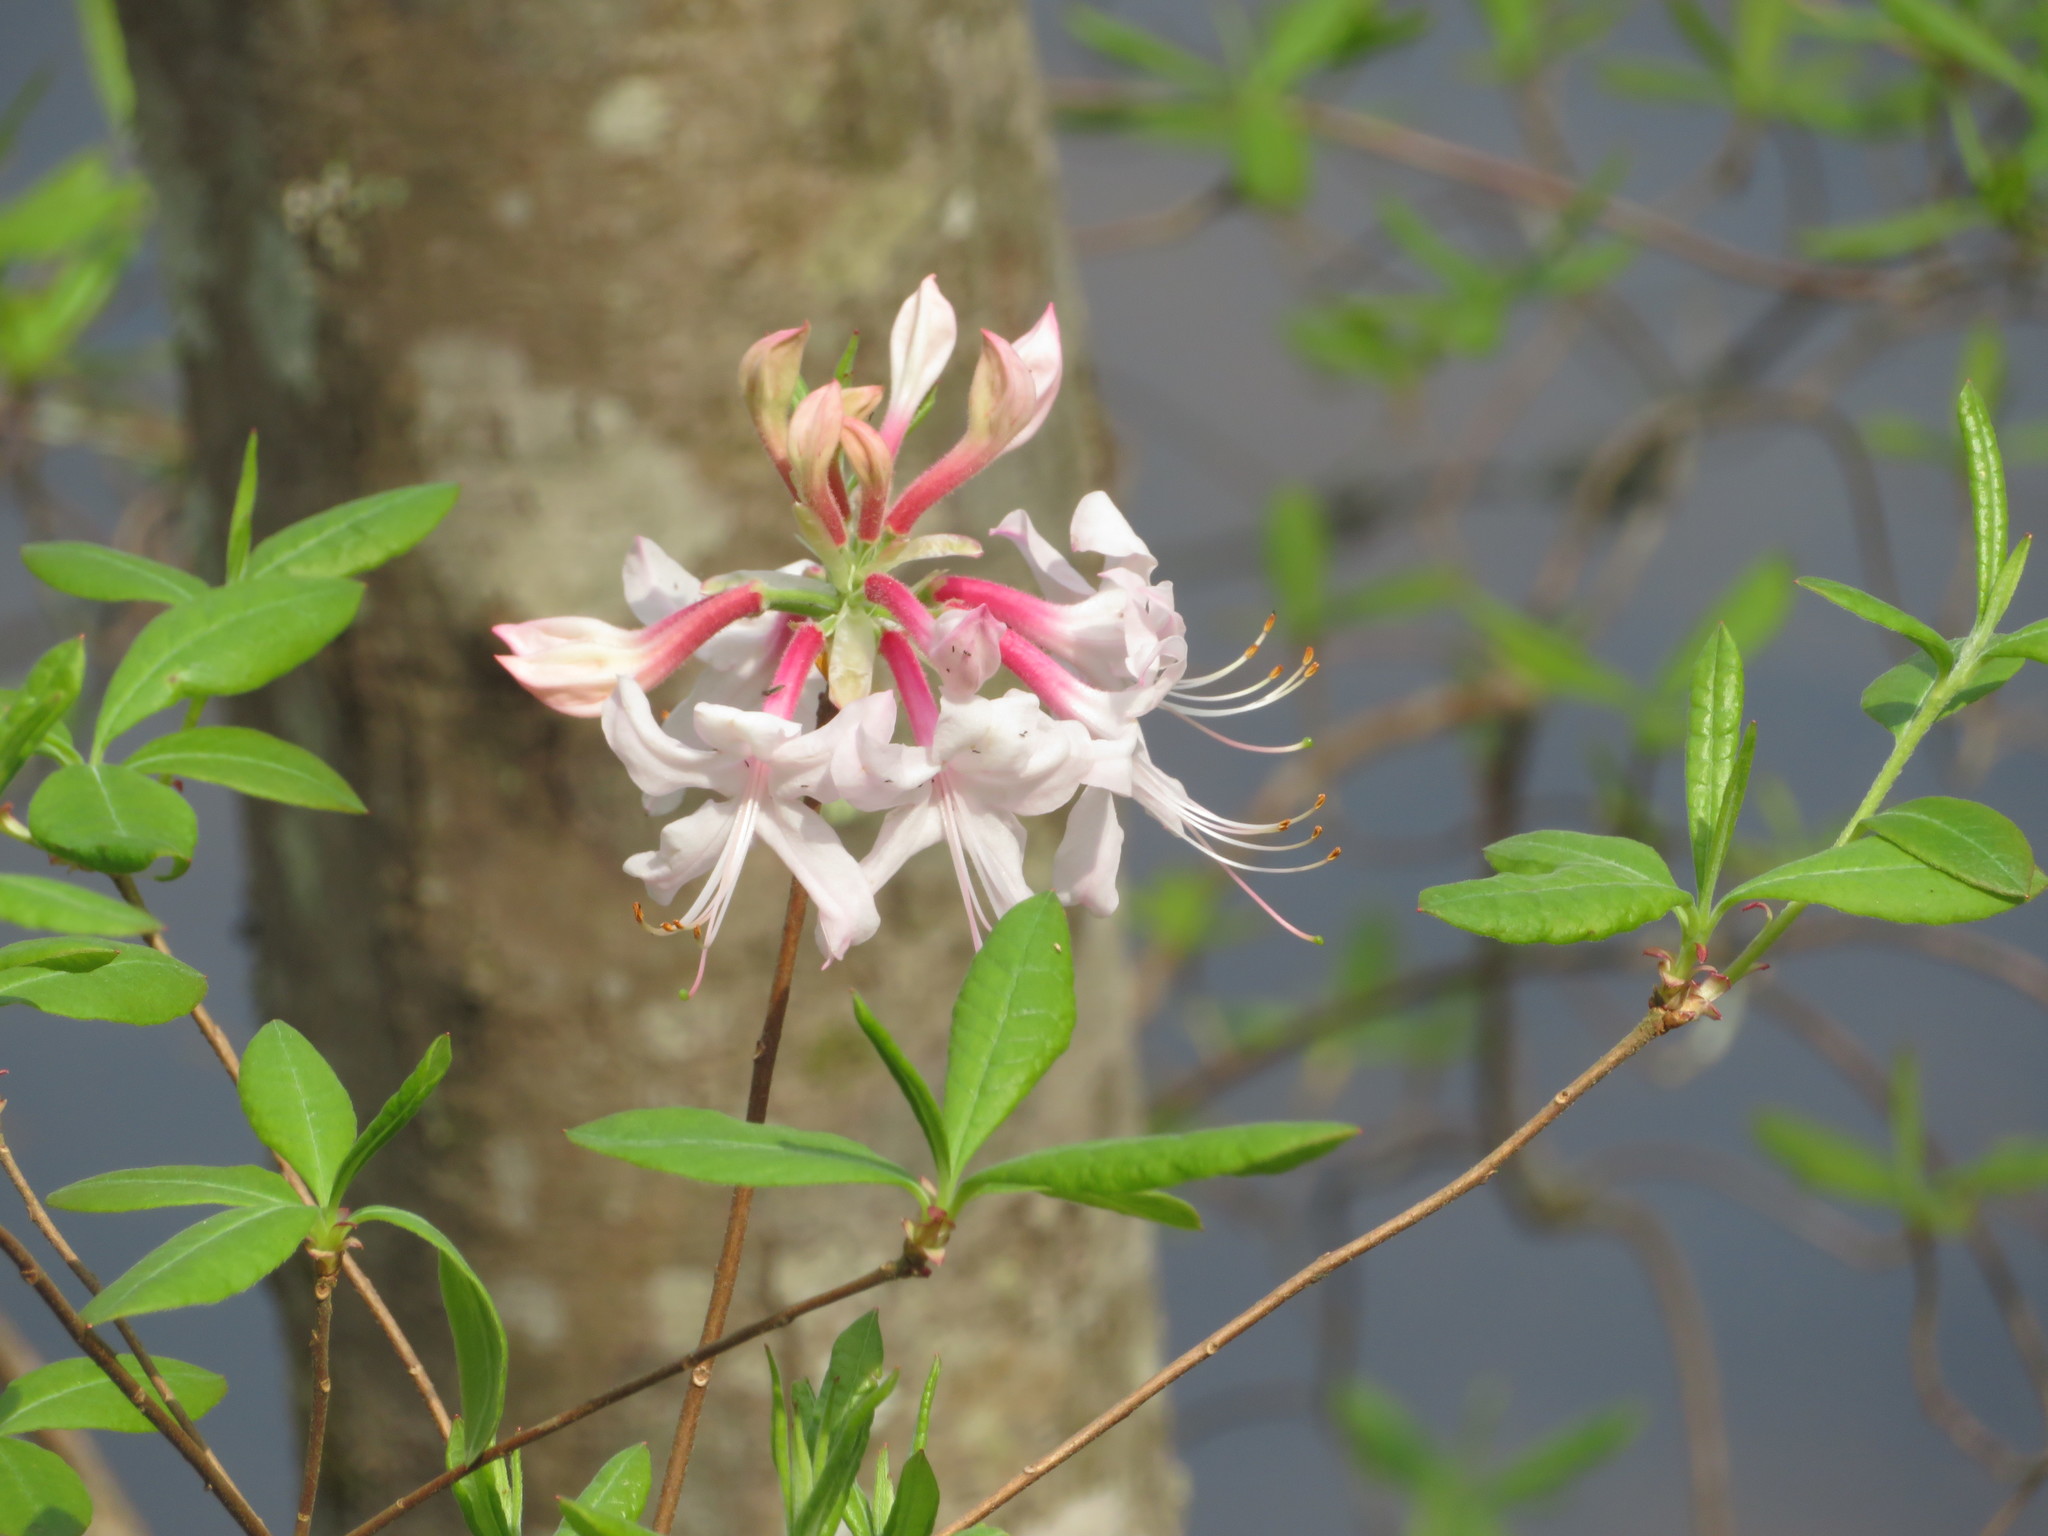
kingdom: Plantae
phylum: Tracheophyta
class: Magnoliopsida
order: Ericales
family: Ericaceae
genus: Rhododendron
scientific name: Rhododendron canescens
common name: Mountain azalea
